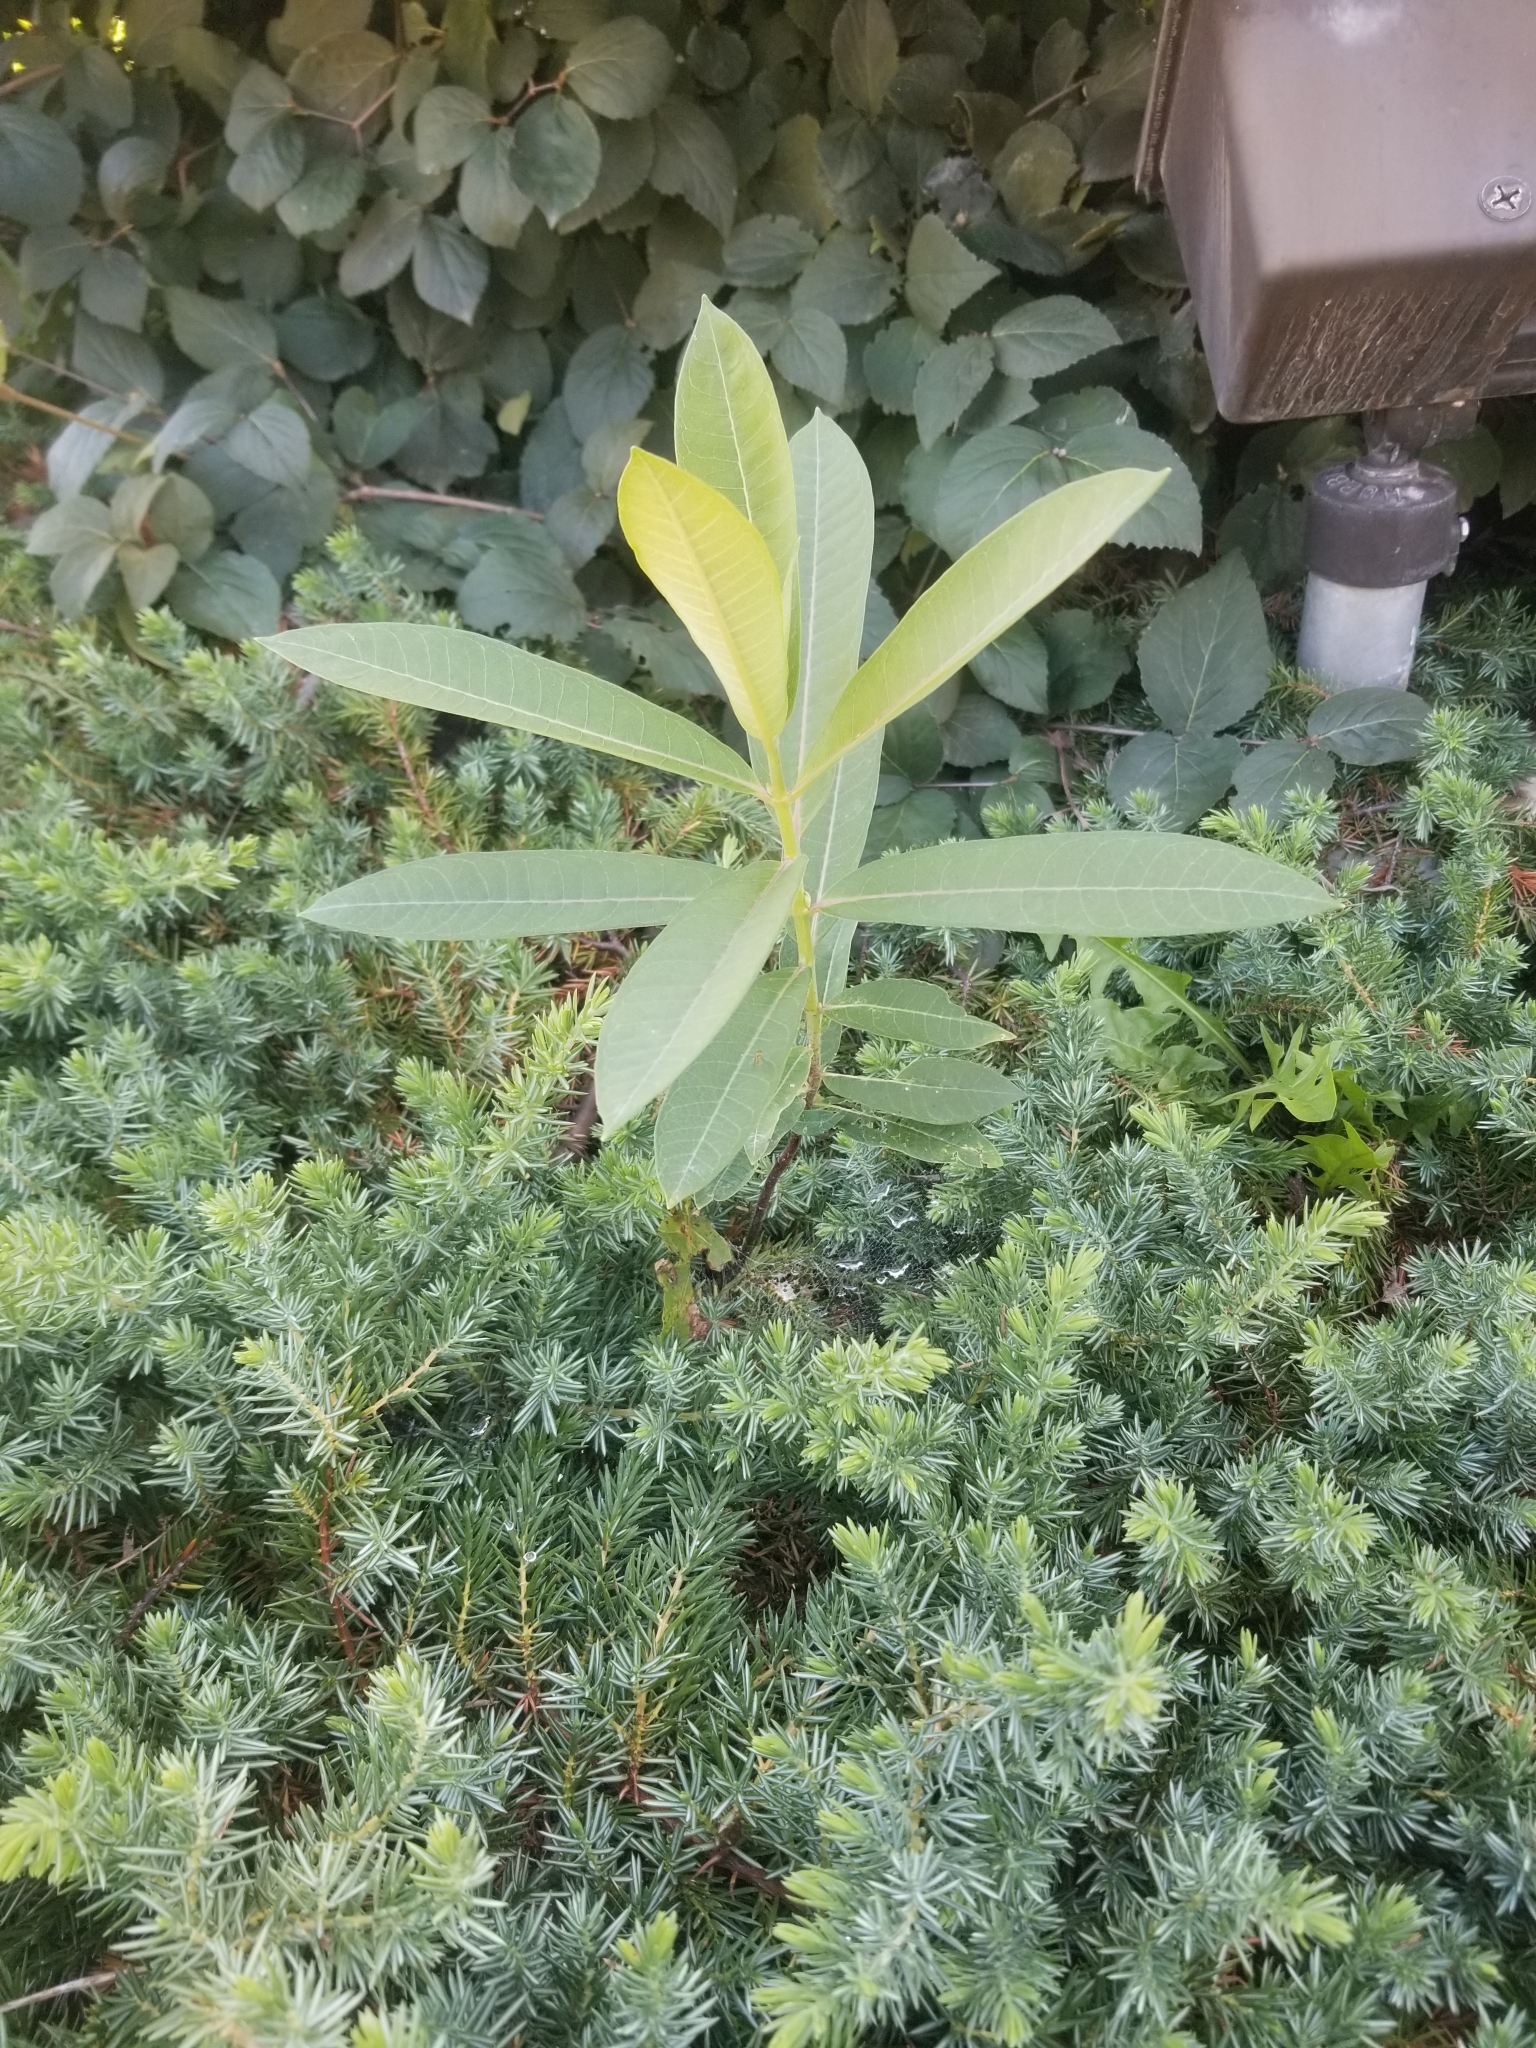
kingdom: Plantae
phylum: Tracheophyta
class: Magnoliopsida
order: Gentianales
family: Apocynaceae
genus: Asclepias
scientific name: Asclepias syriaca
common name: Common milkweed
